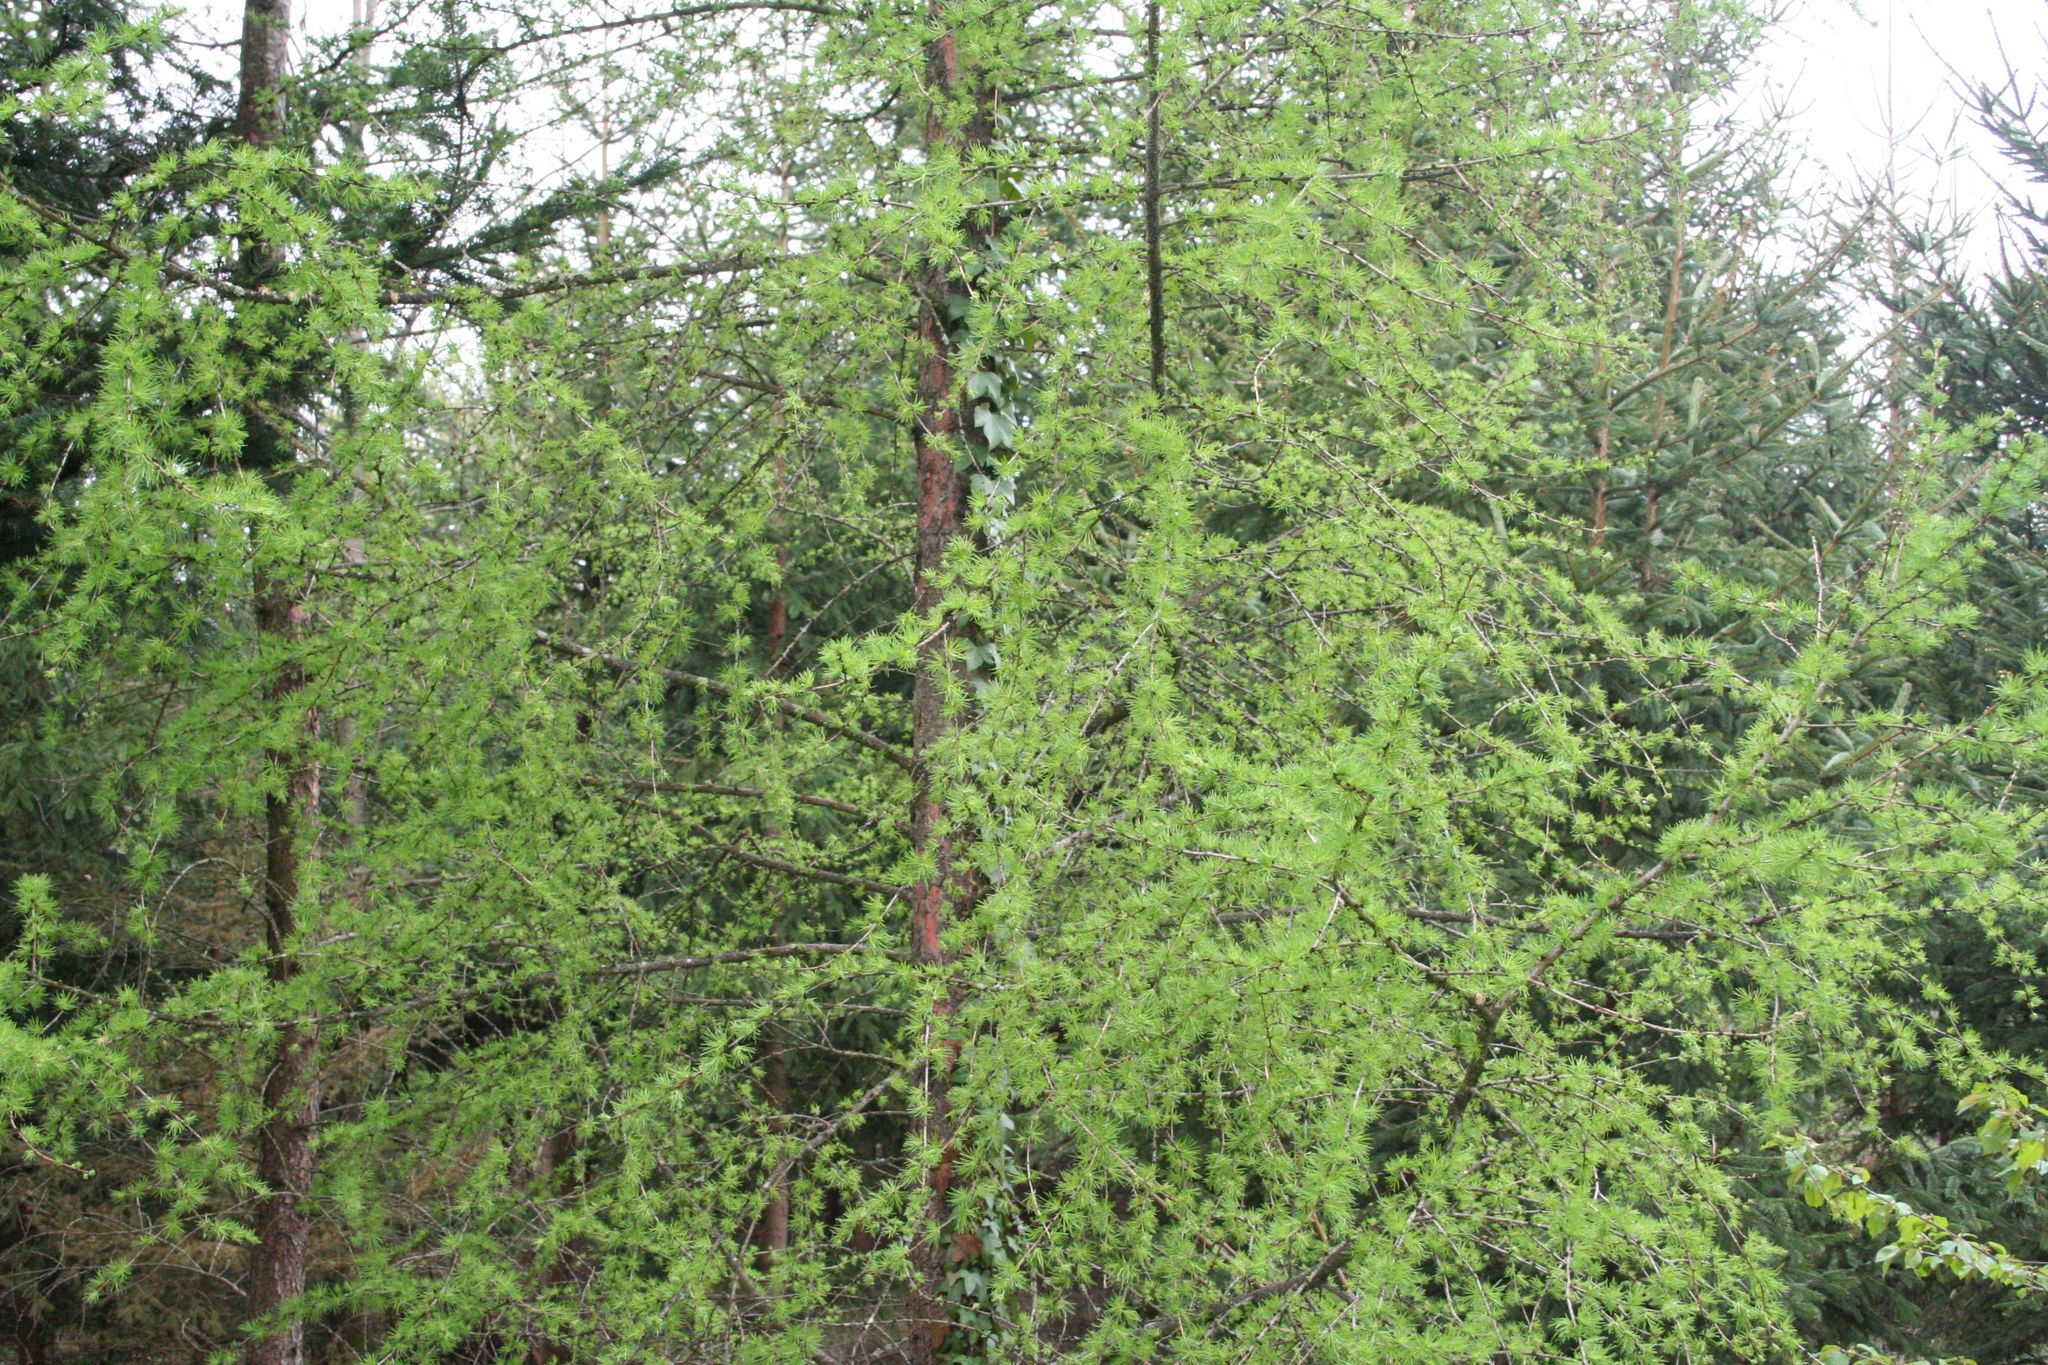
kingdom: Plantae
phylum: Tracheophyta
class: Pinopsida
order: Pinales
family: Pinaceae
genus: Larix
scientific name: Larix decidua
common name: European larch
